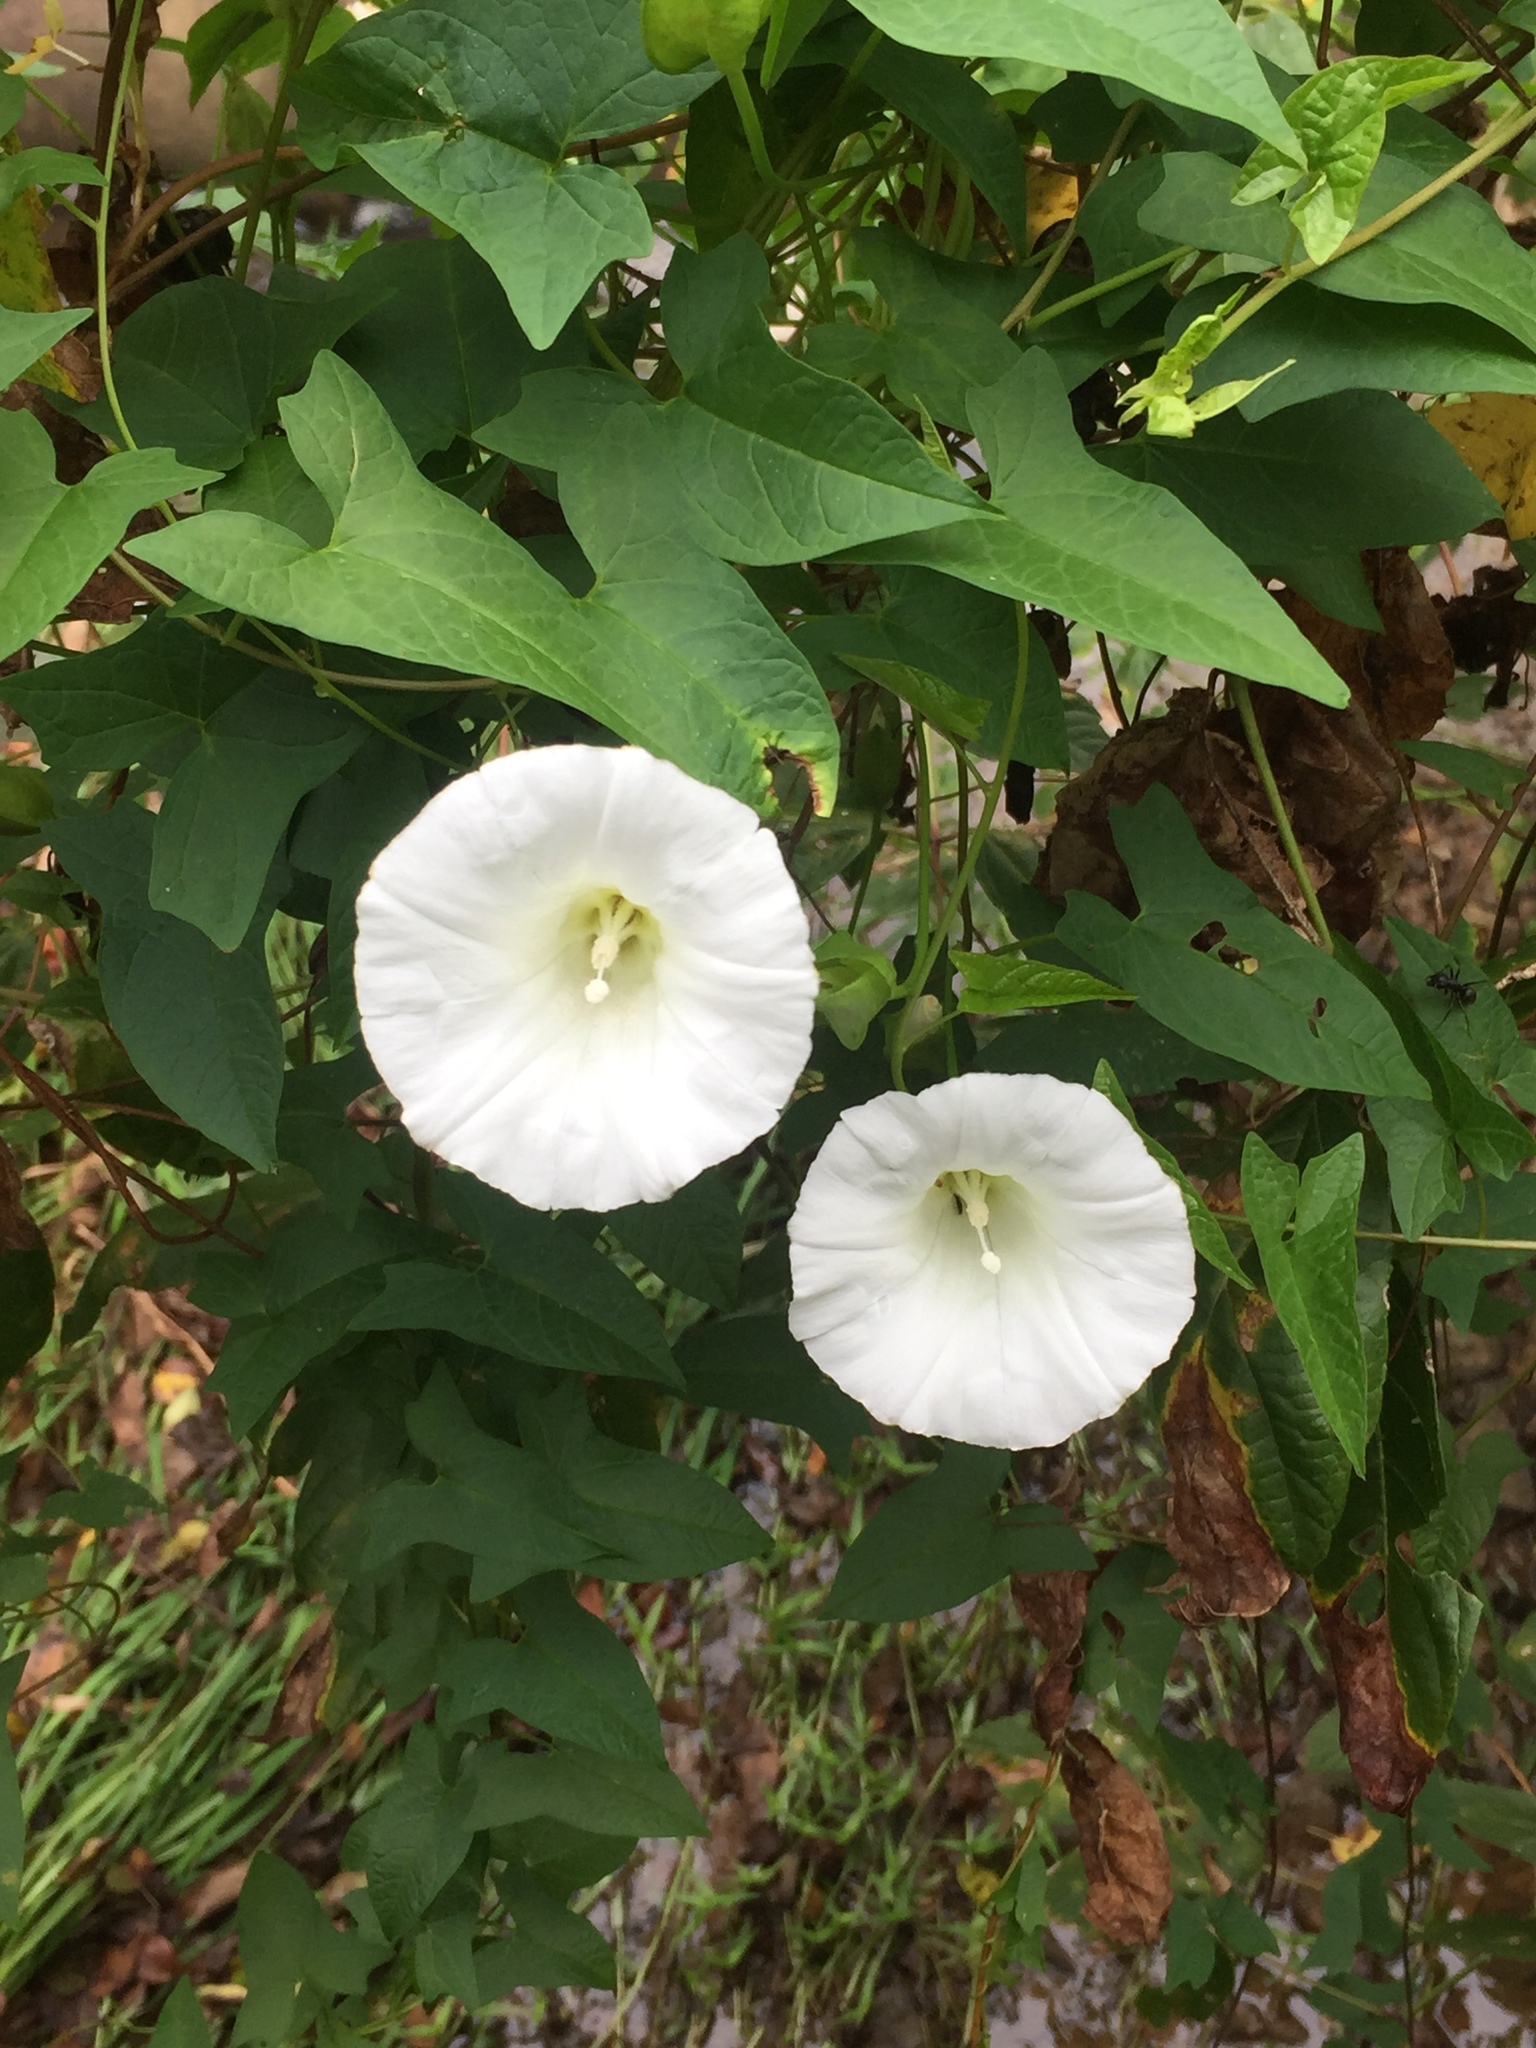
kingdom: Plantae
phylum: Tracheophyta
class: Magnoliopsida
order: Solanales
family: Convolvulaceae
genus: Calystegia
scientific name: Calystegia silvatica
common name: Large bindweed
